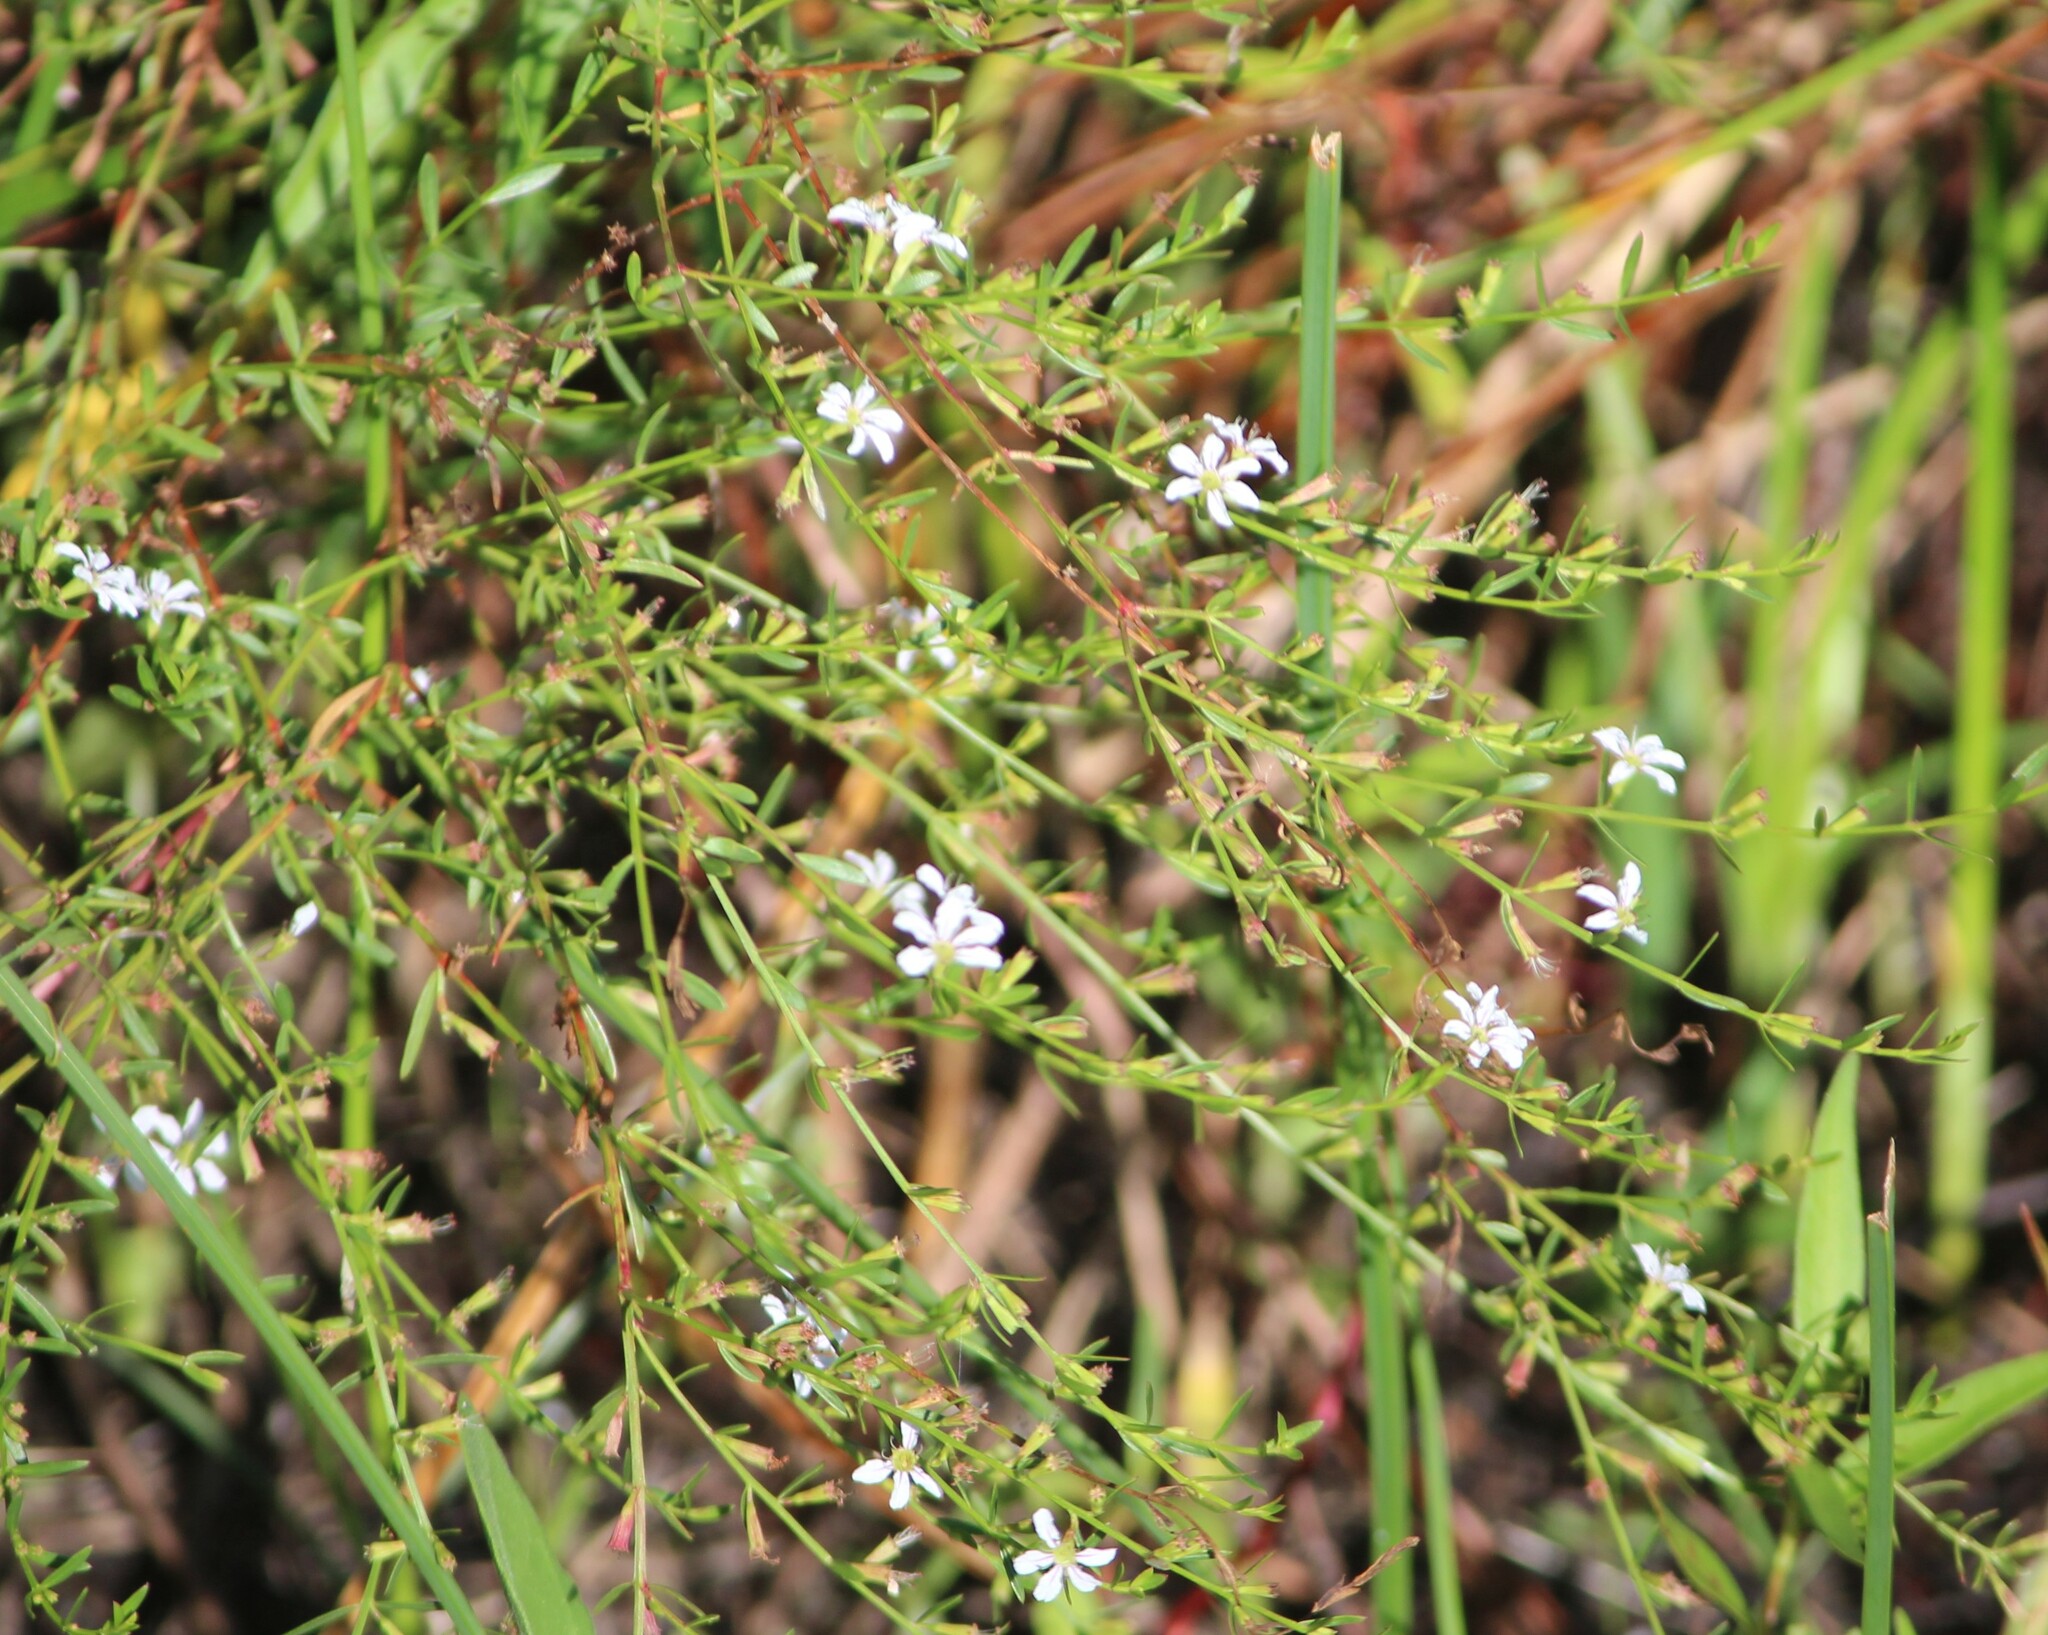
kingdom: Plantae
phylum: Tracheophyta
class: Magnoliopsida
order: Myrtales
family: Lythraceae
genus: Lythrum
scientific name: Lythrum lineare
